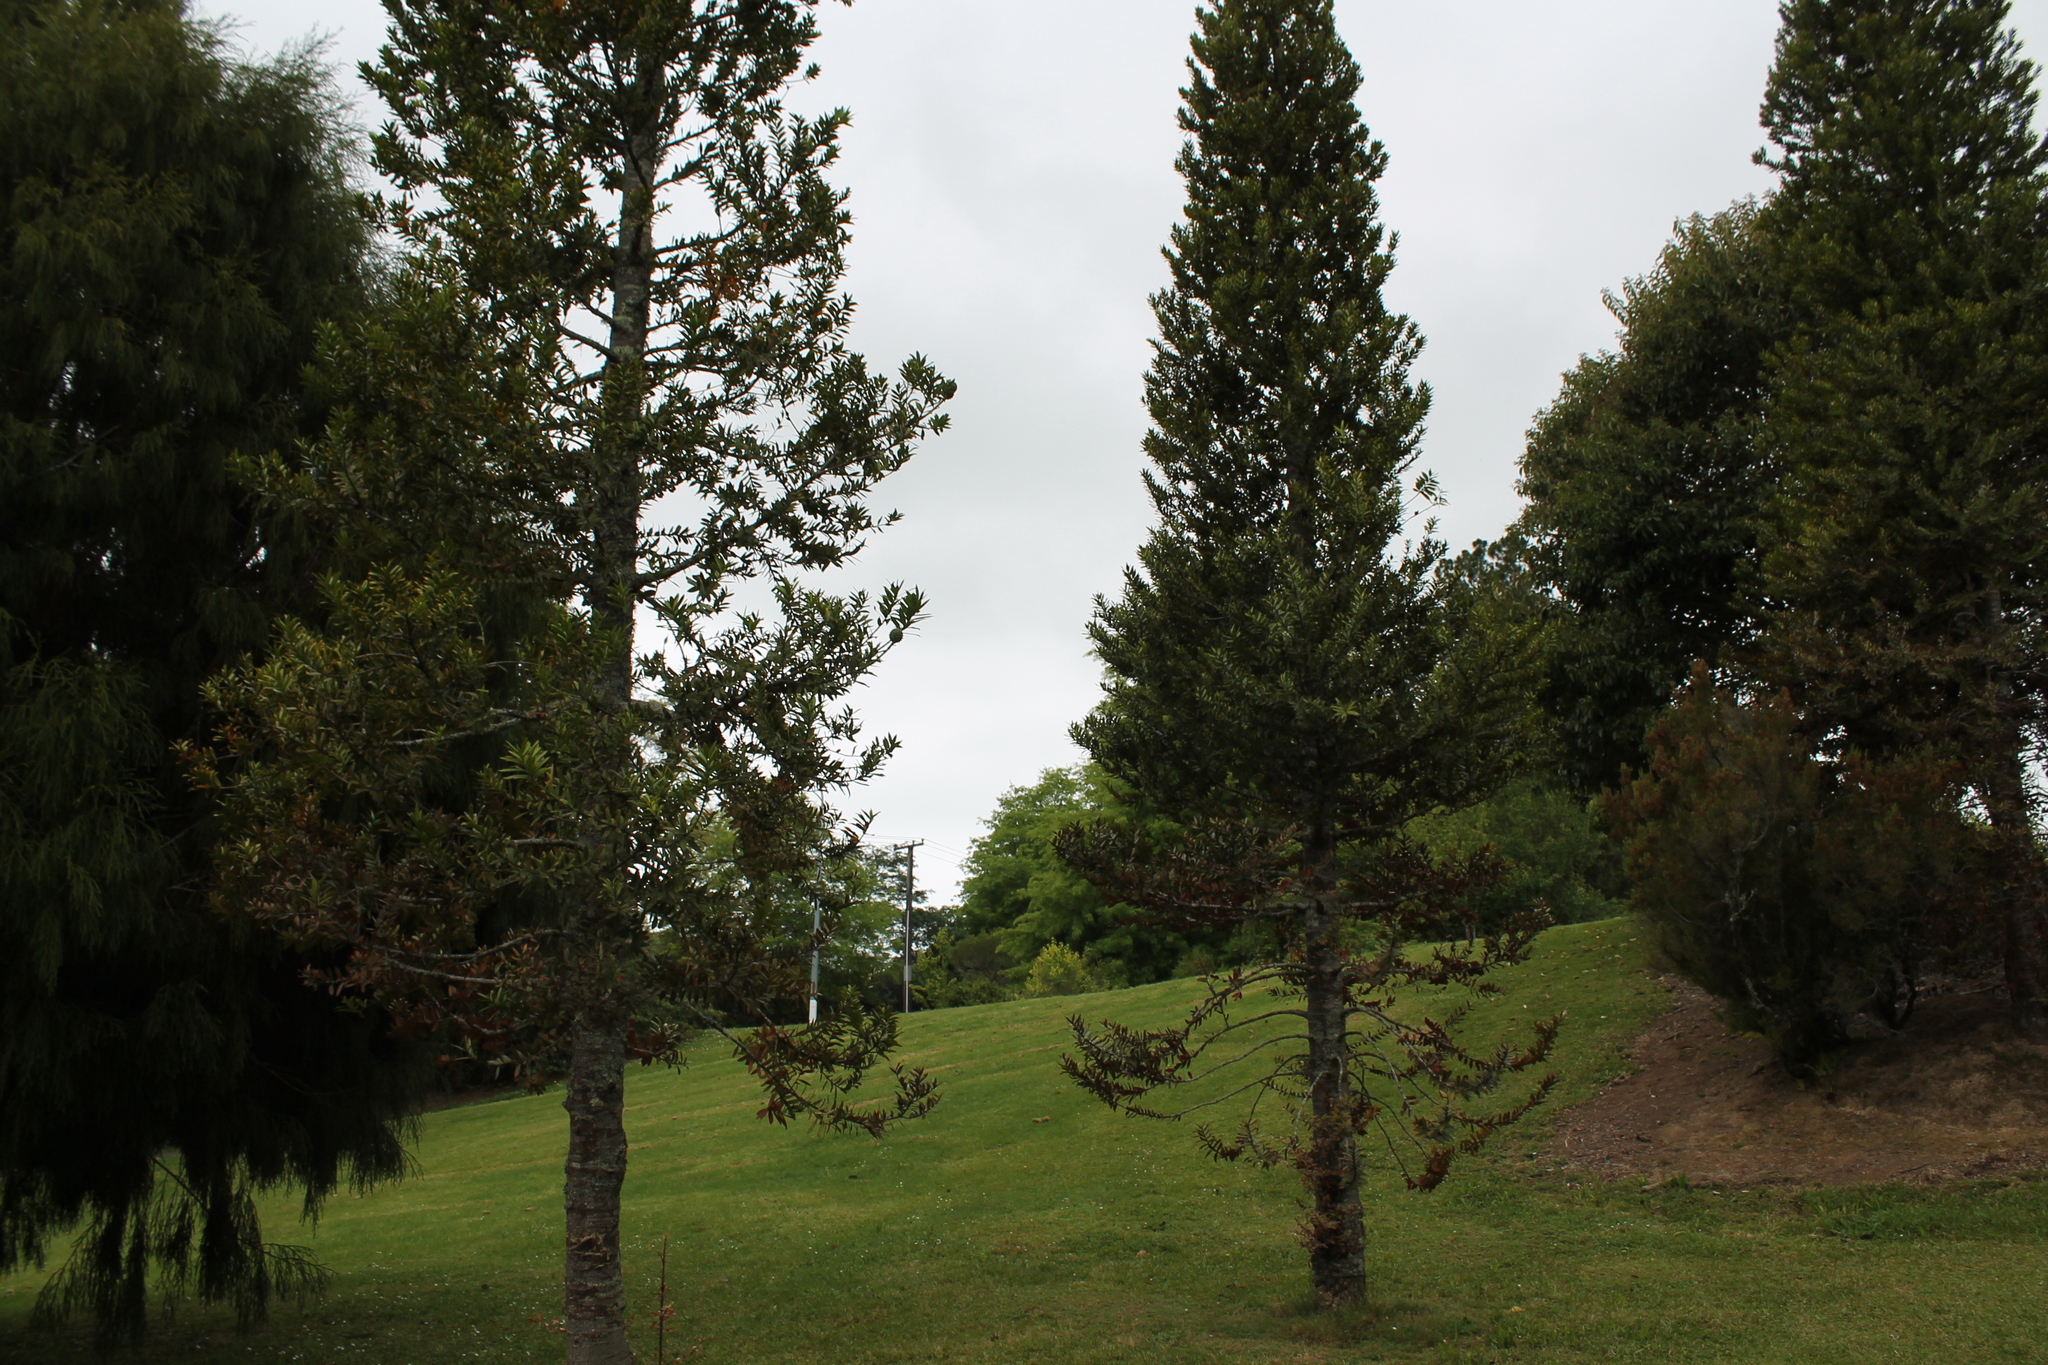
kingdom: Plantae
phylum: Tracheophyta
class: Pinopsida
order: Pinales
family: Araucariaceae
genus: Agathis
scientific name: Agathis australis
